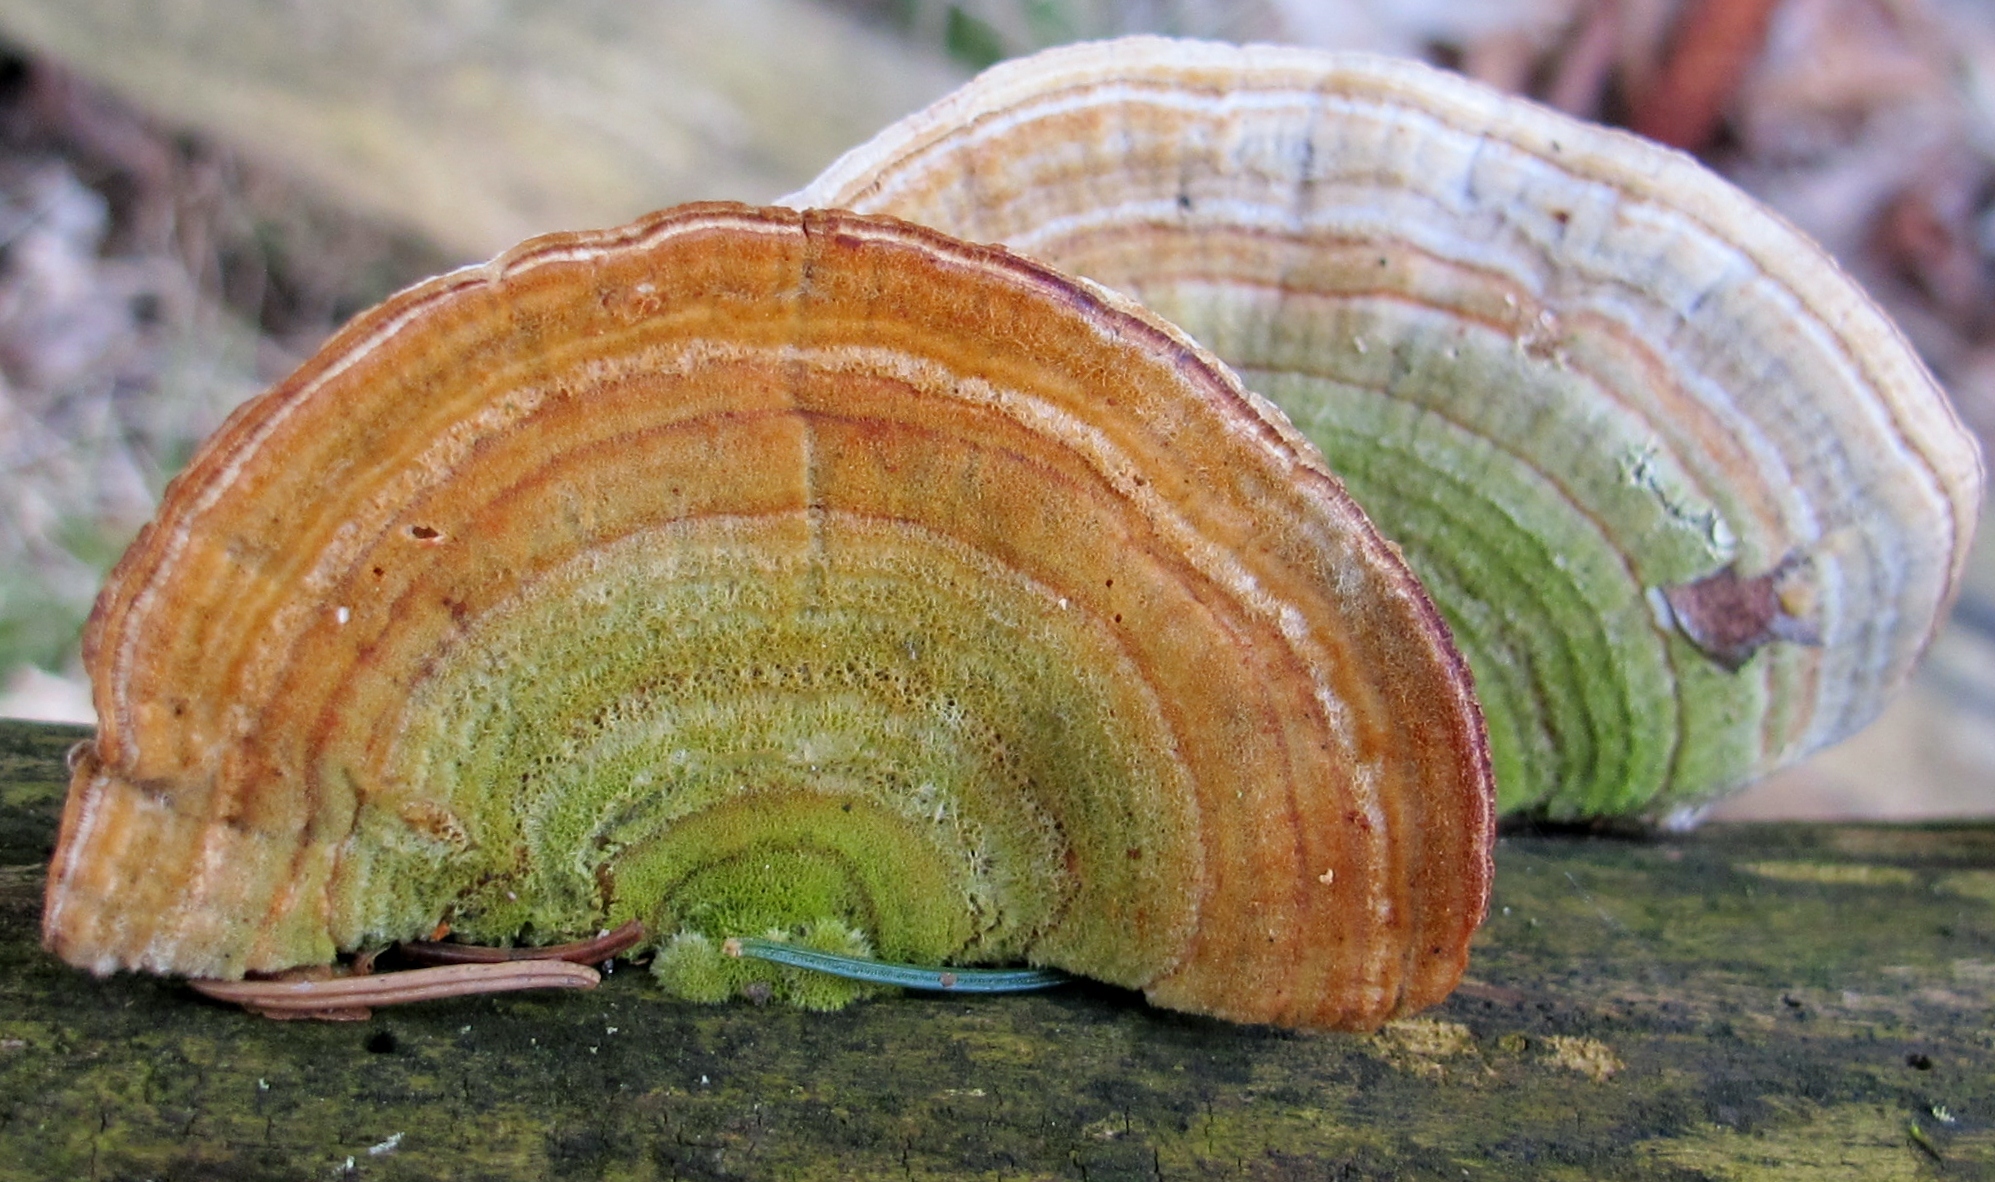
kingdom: Fungi
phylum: Basidiomycota
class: Agaricomycetes
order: Polyporales
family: Polyporaceae
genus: Lenzites
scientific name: Lenzites betulinus
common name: Birch mazegill
